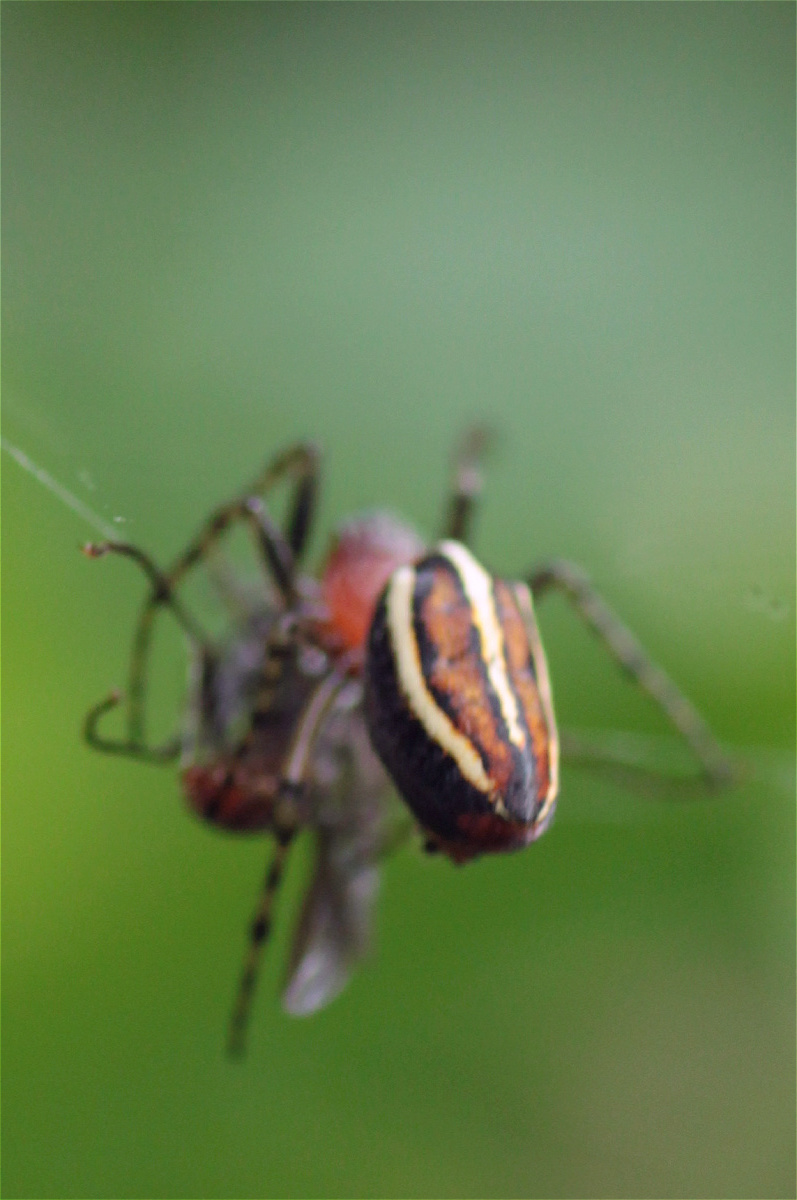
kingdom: Animalia
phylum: Arthropoda
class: Arachnida
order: Araneae
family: Araneidae
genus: Alpaida
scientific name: Alpaida leucogramma
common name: Orb weavers
